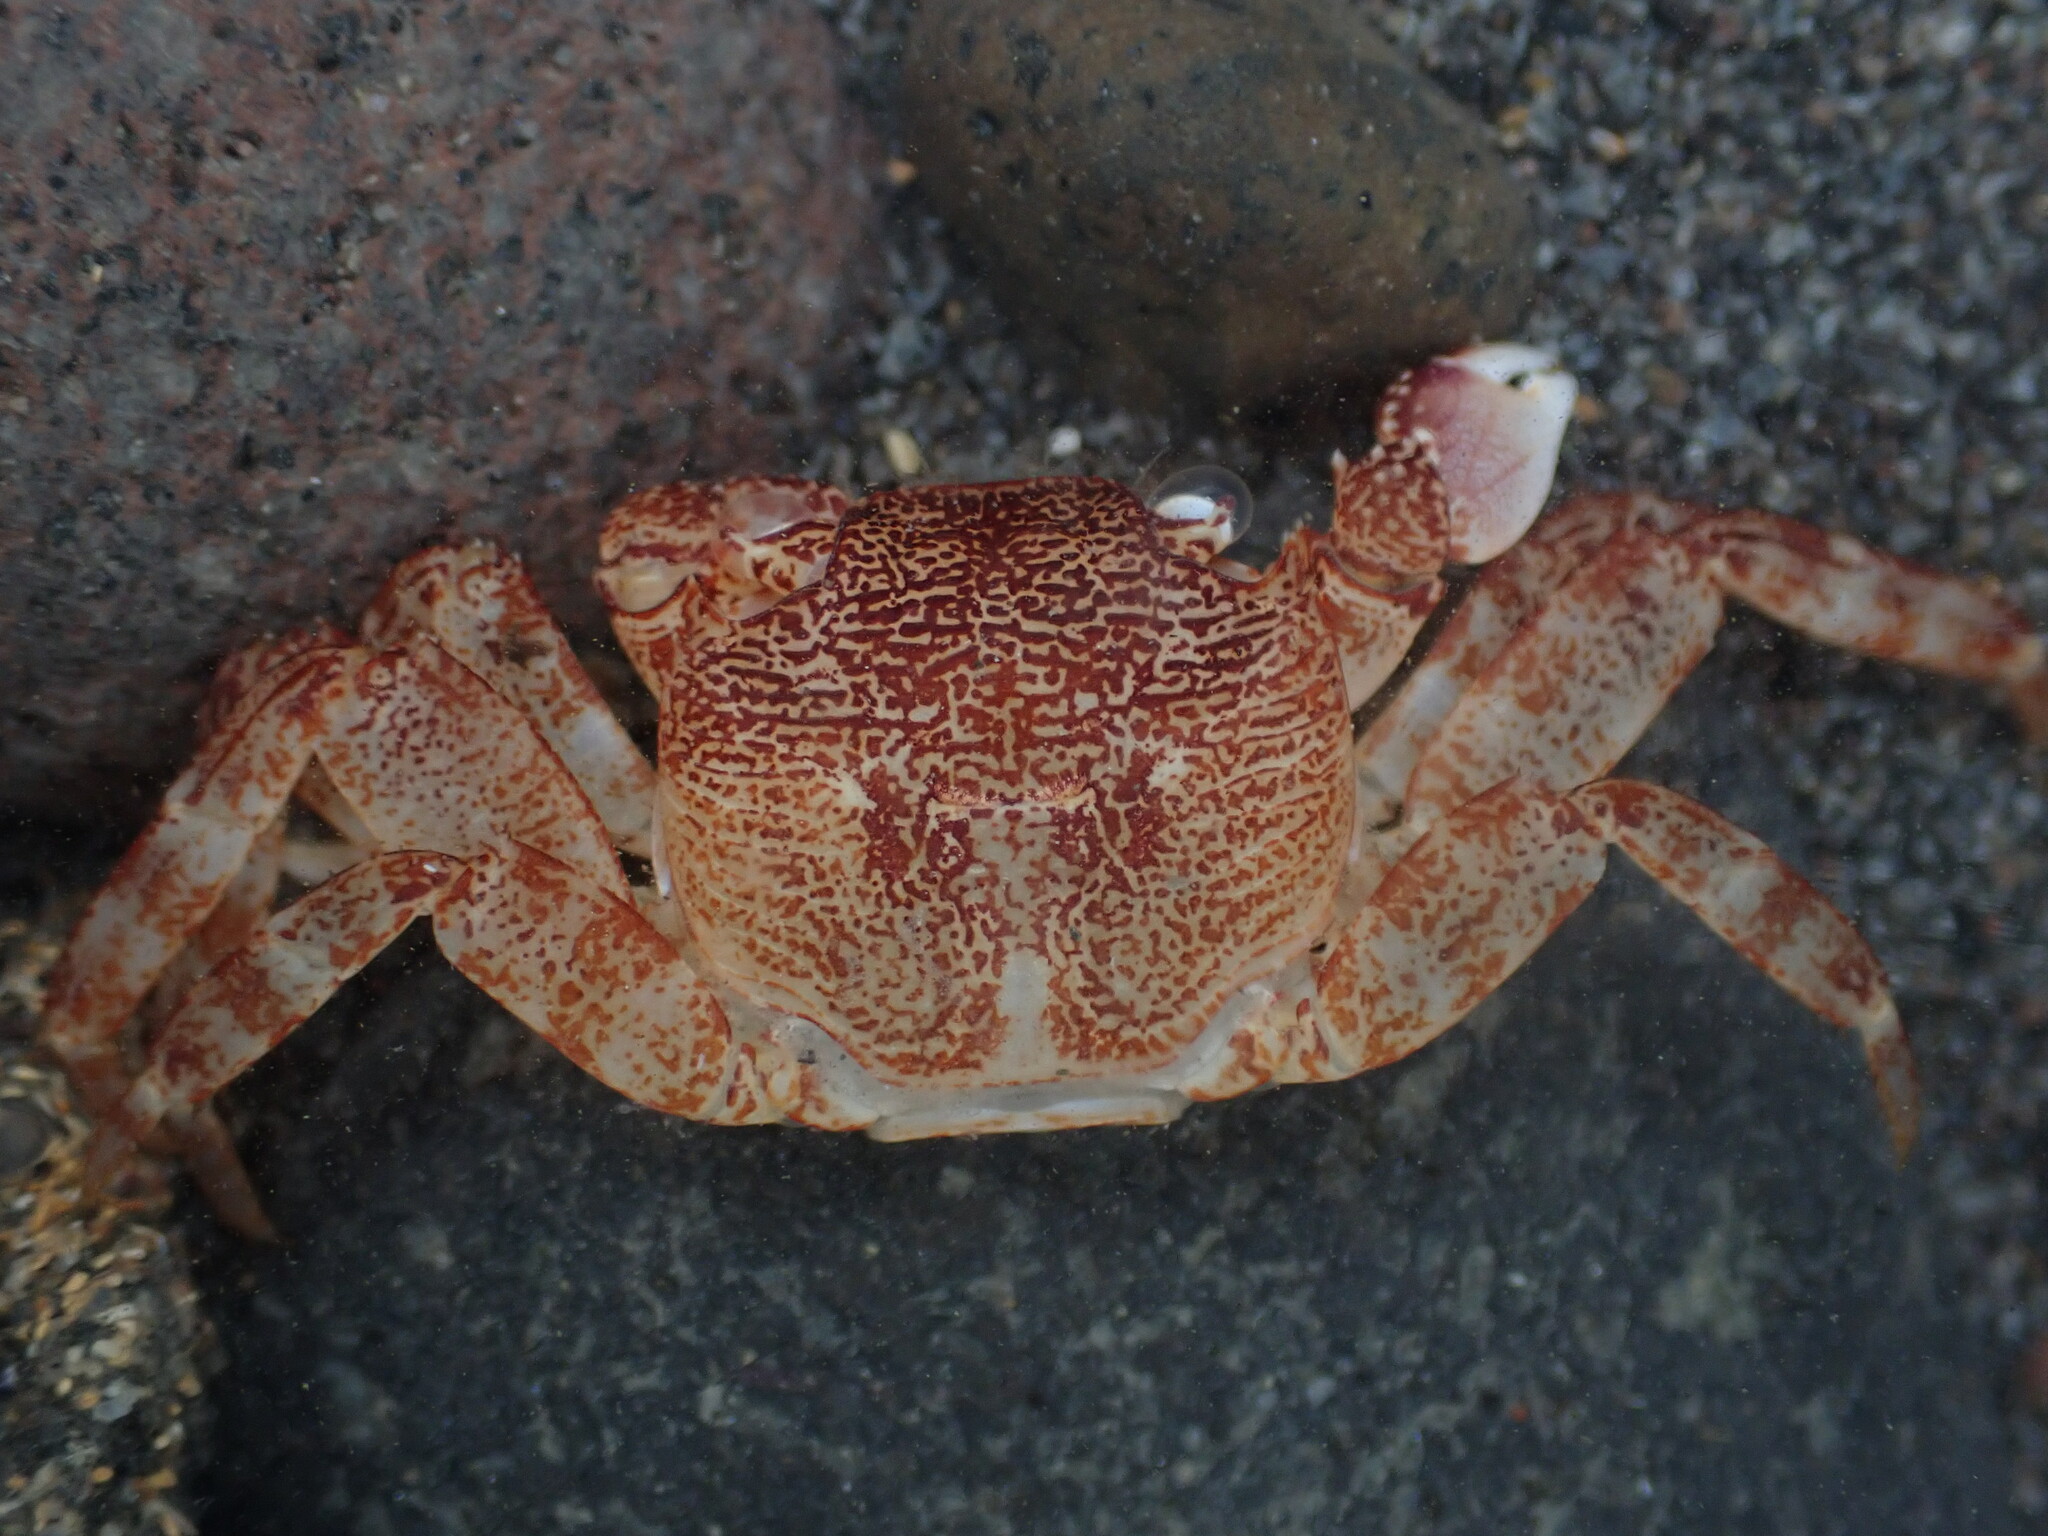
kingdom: Animalia
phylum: Arthropoda
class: Malacostraca
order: Decapoda
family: Grapsidae
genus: Leptograpsus
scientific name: Leptograpsus variegatus
